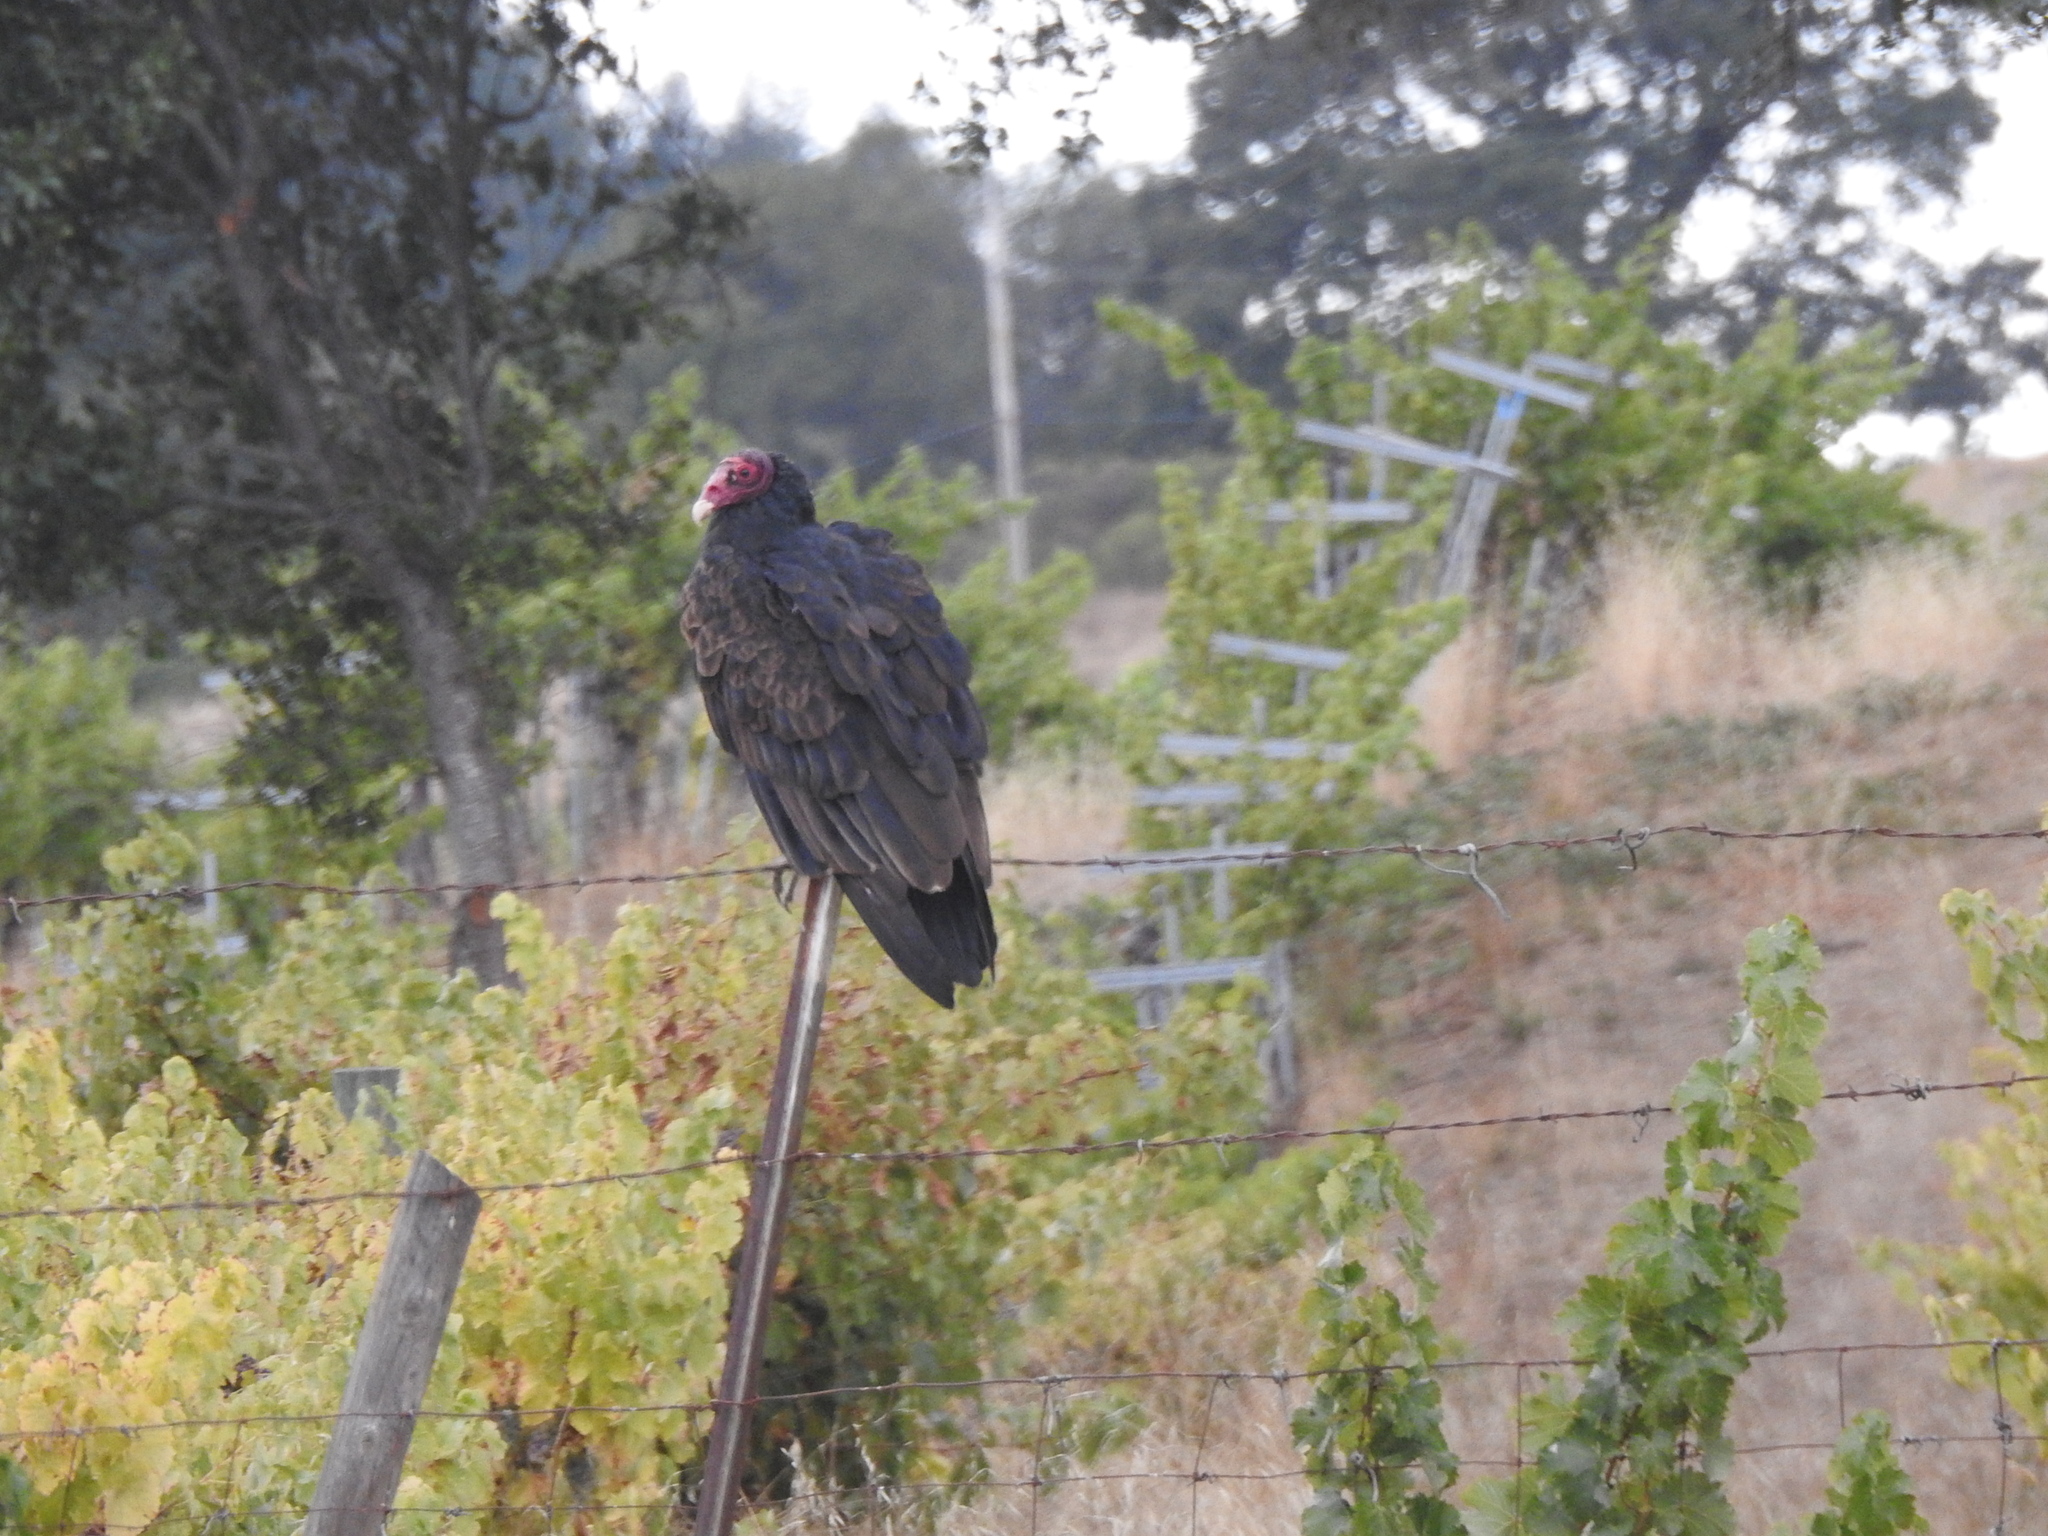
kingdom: Animalia
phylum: Chordata
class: Aves
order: Accipitriformes
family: Cathartidae
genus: Cathartes
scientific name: Cathartes aura
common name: Turkey vulture
